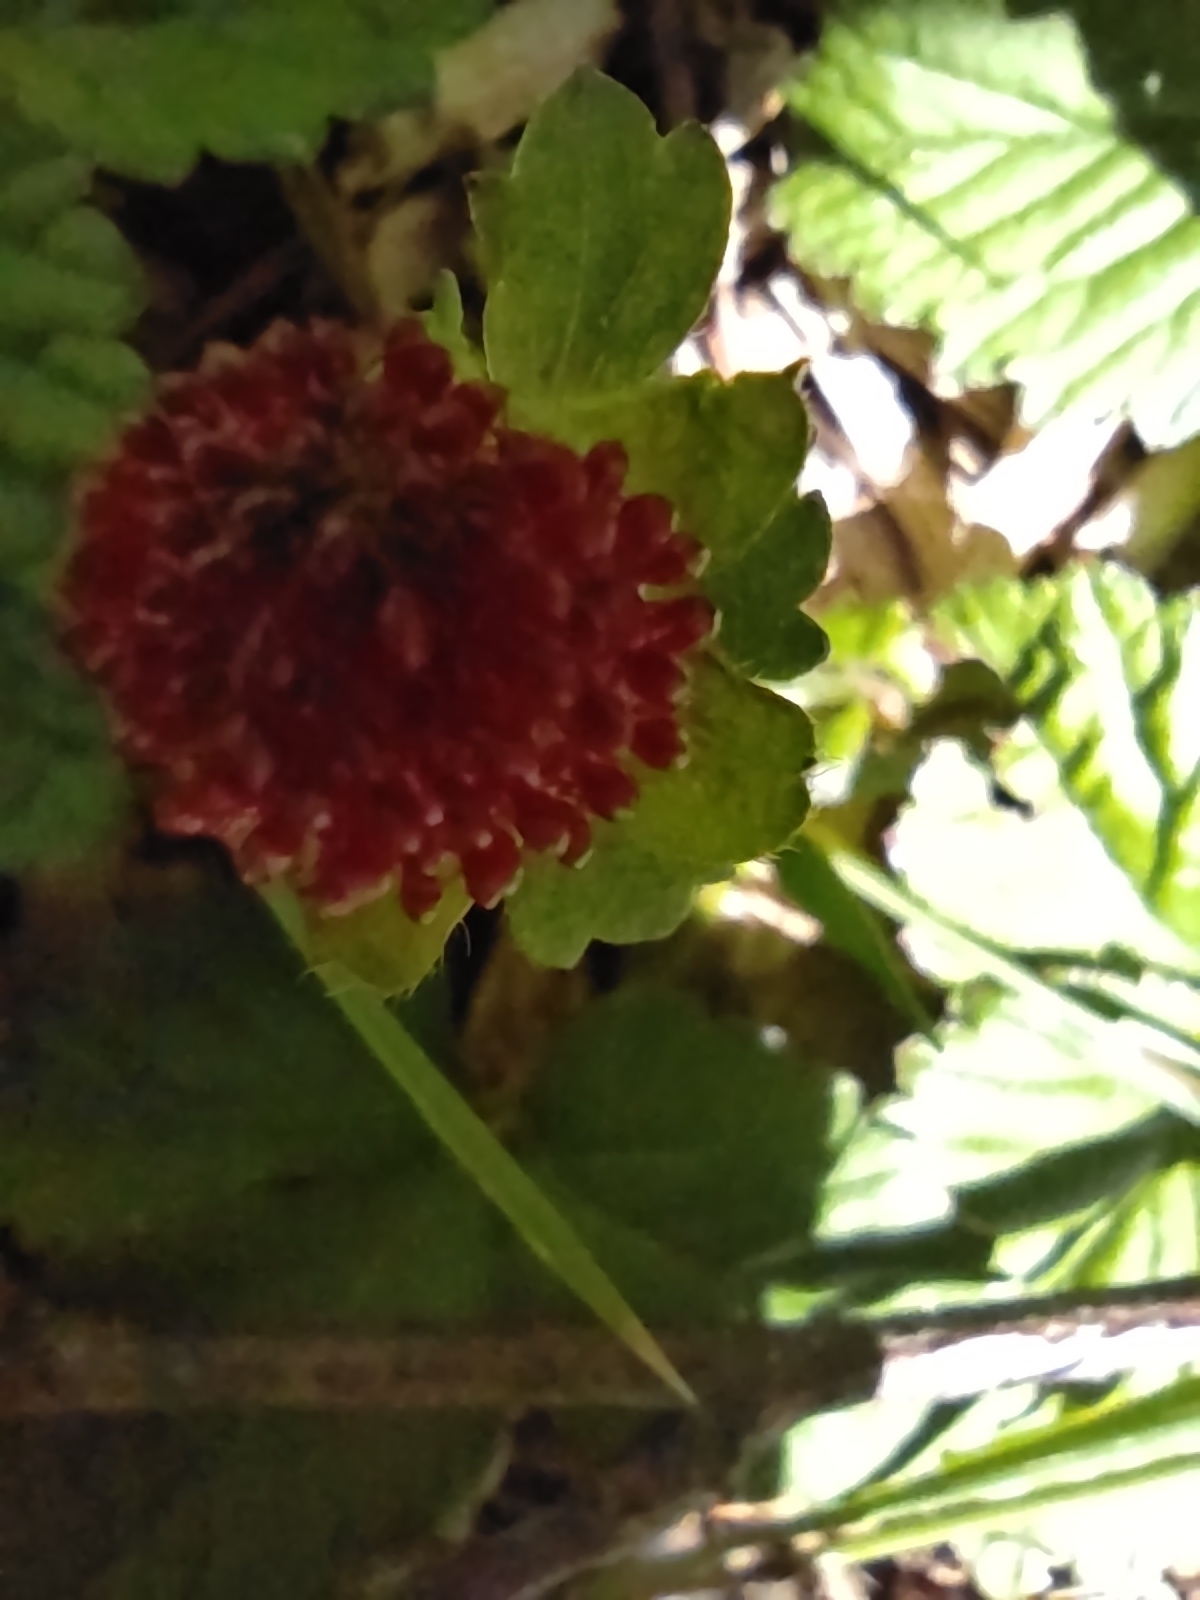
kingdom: Plantae
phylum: Tracheophyta
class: Magnoliopsida
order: Rosales
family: Rosaceae
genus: Potentilla
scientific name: Potentilla indica
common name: Yellow-flowered strawberry
